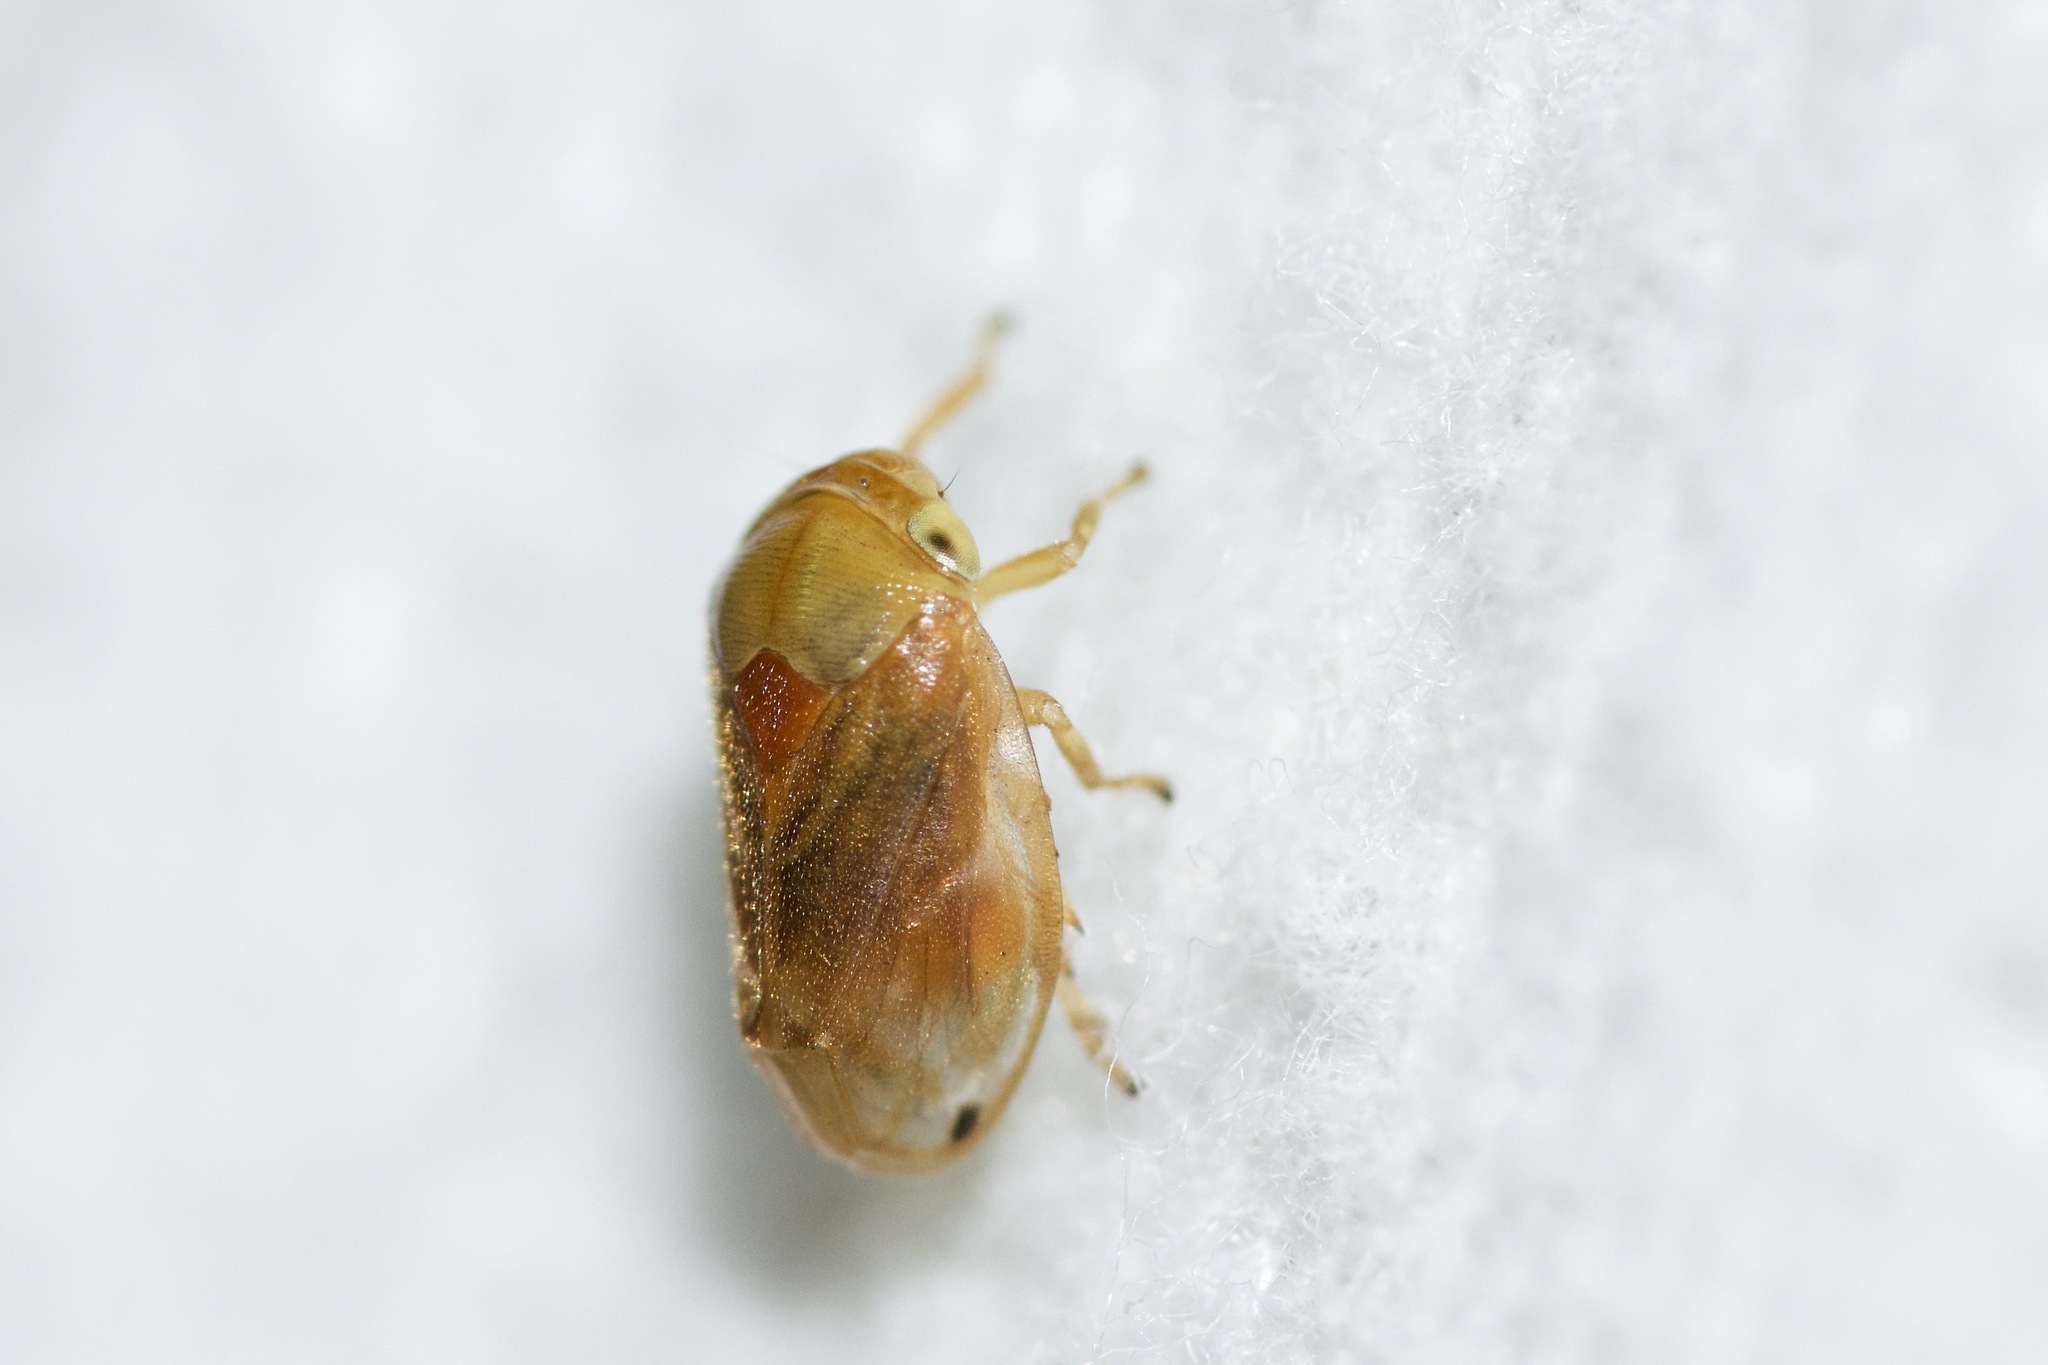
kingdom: Animalia
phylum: Arthropoda
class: Insecta
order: Hemiptera
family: Clastopteridae
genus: Clastoptera
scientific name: Clastoptera testacea
